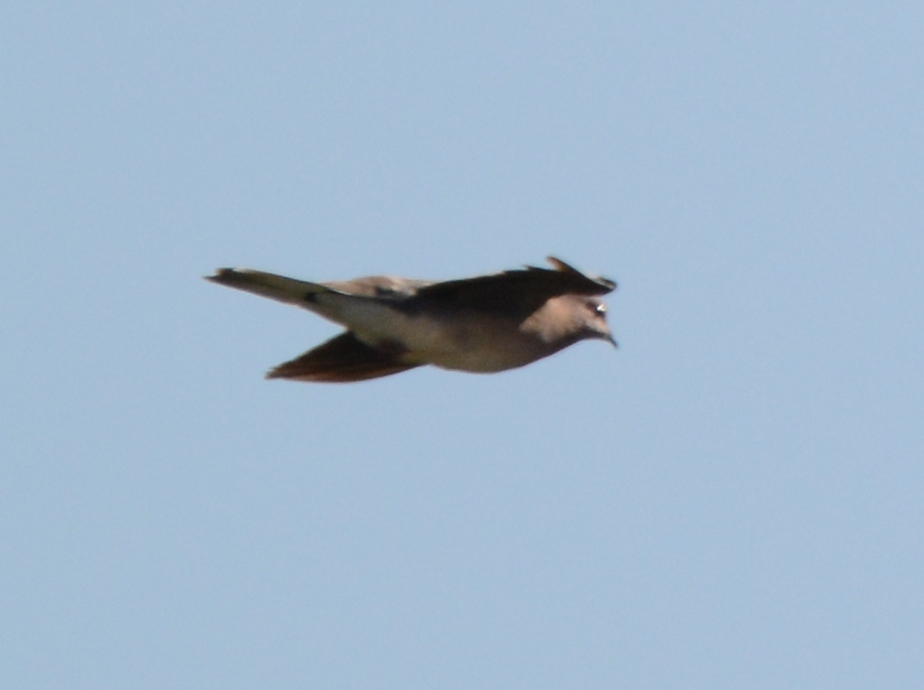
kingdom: Animalia
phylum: Chordata
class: Aves
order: Columbiformes
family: Columbidae
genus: Spilopelia
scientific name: Spilopelia senegalensis
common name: Laughing dove
